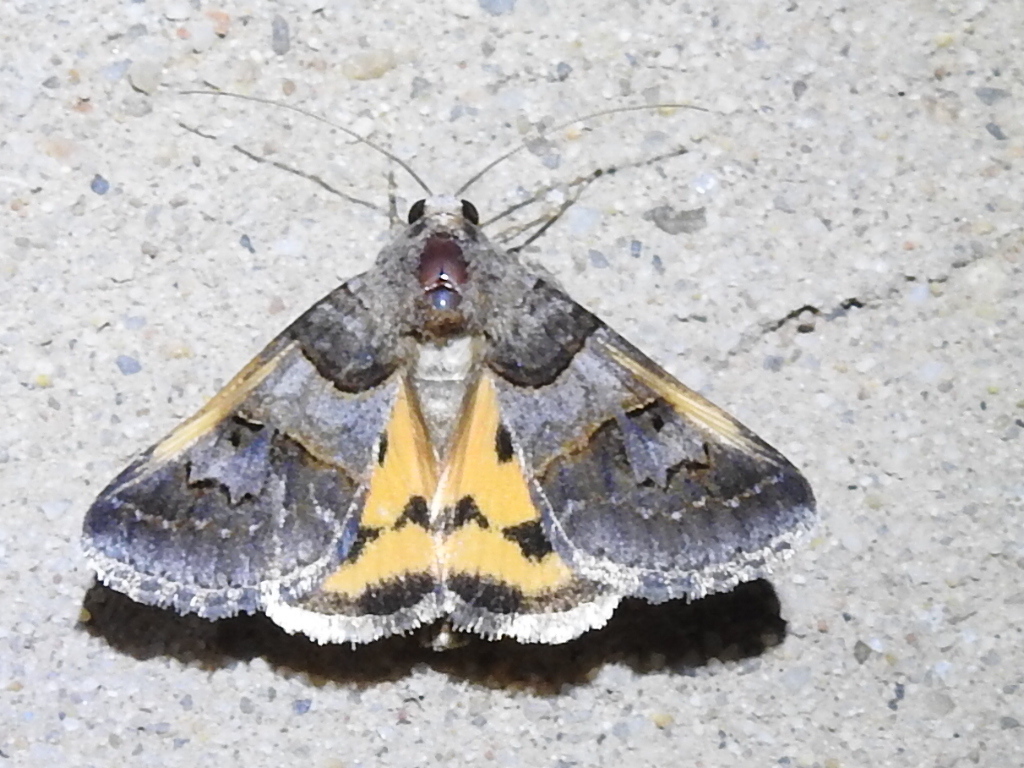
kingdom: Animalia
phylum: Arthropoda
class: Insecta
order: Lepidoptera
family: Erebidae
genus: Drasteria
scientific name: Drasteria ingeniculata
